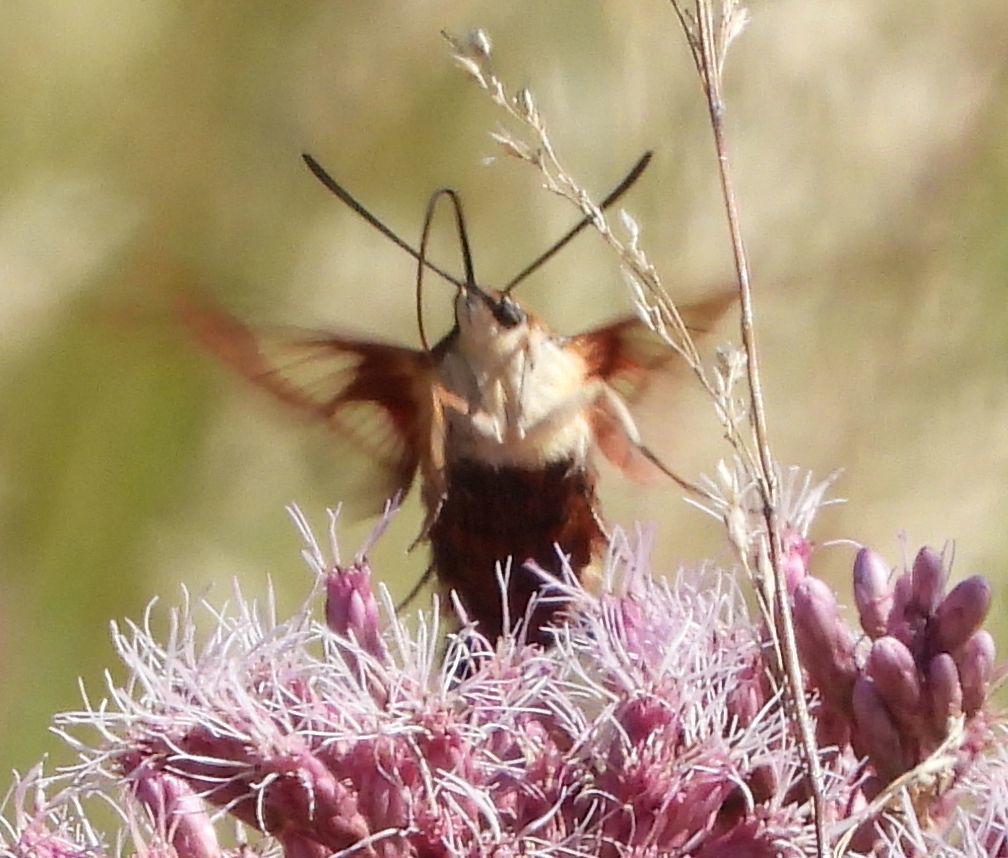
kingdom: Animalia
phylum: Arthropoda
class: Insecta
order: Lepidoptera
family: Sphingidae
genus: Hemaris
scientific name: Hemaris thysbe
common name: Common clear-wing
